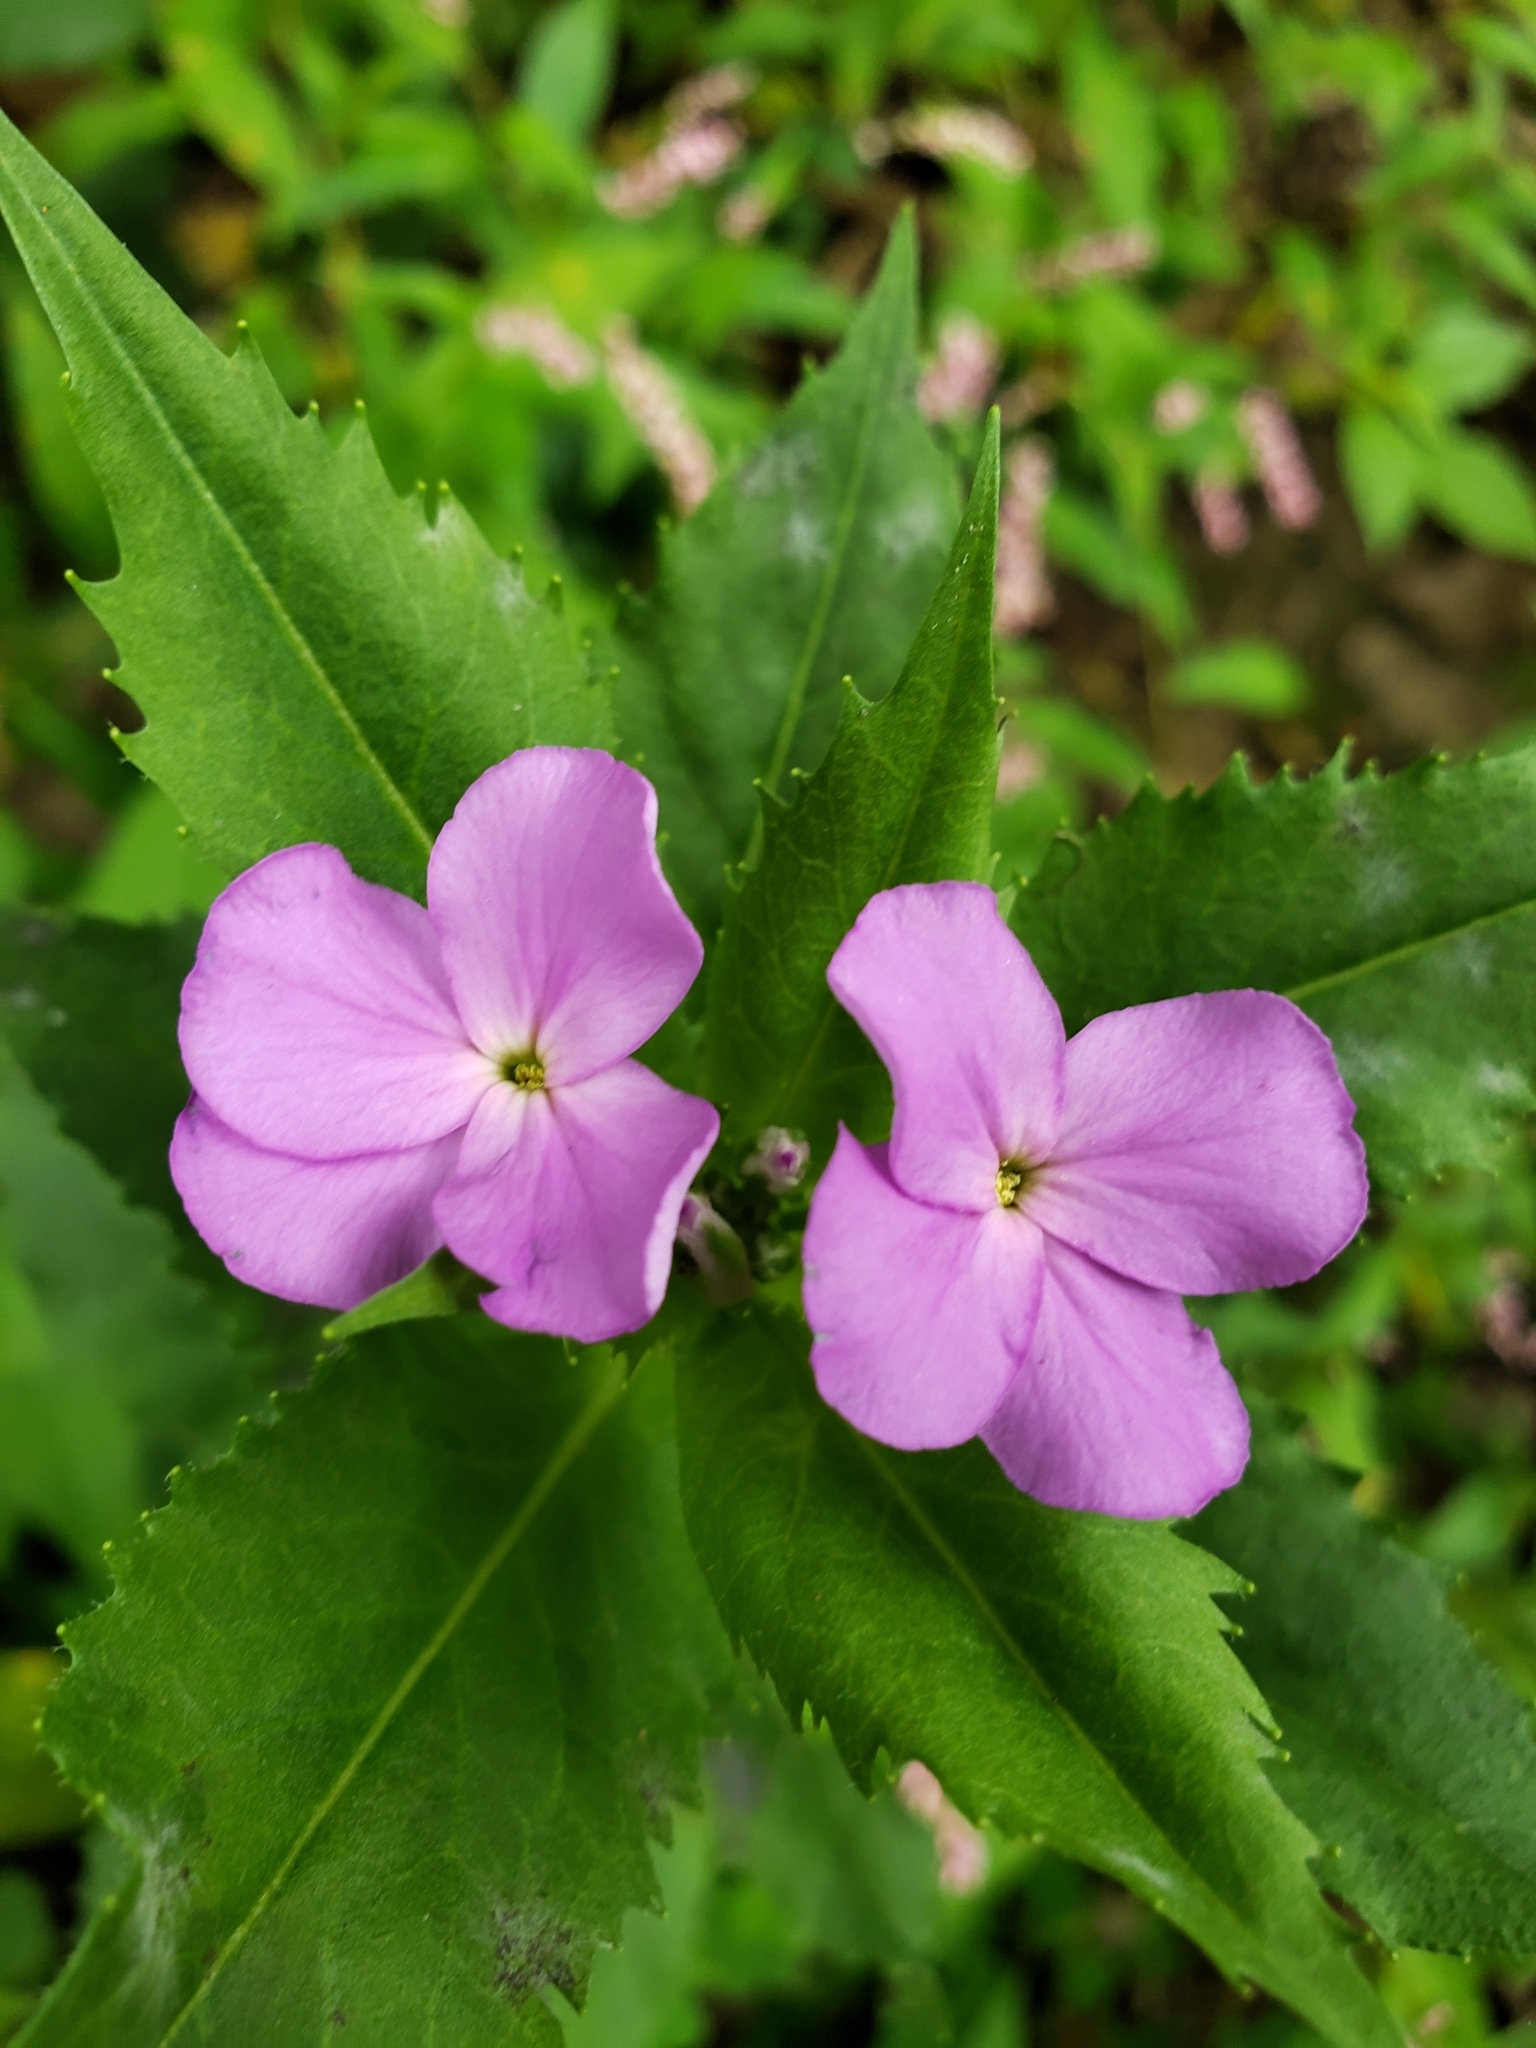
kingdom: Plantae
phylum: Tracheophyta
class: Magnoliopsida
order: Brassicales
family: Brassicaceae
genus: Hesperis
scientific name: Hesperis matronalis
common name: Dame's-violet
